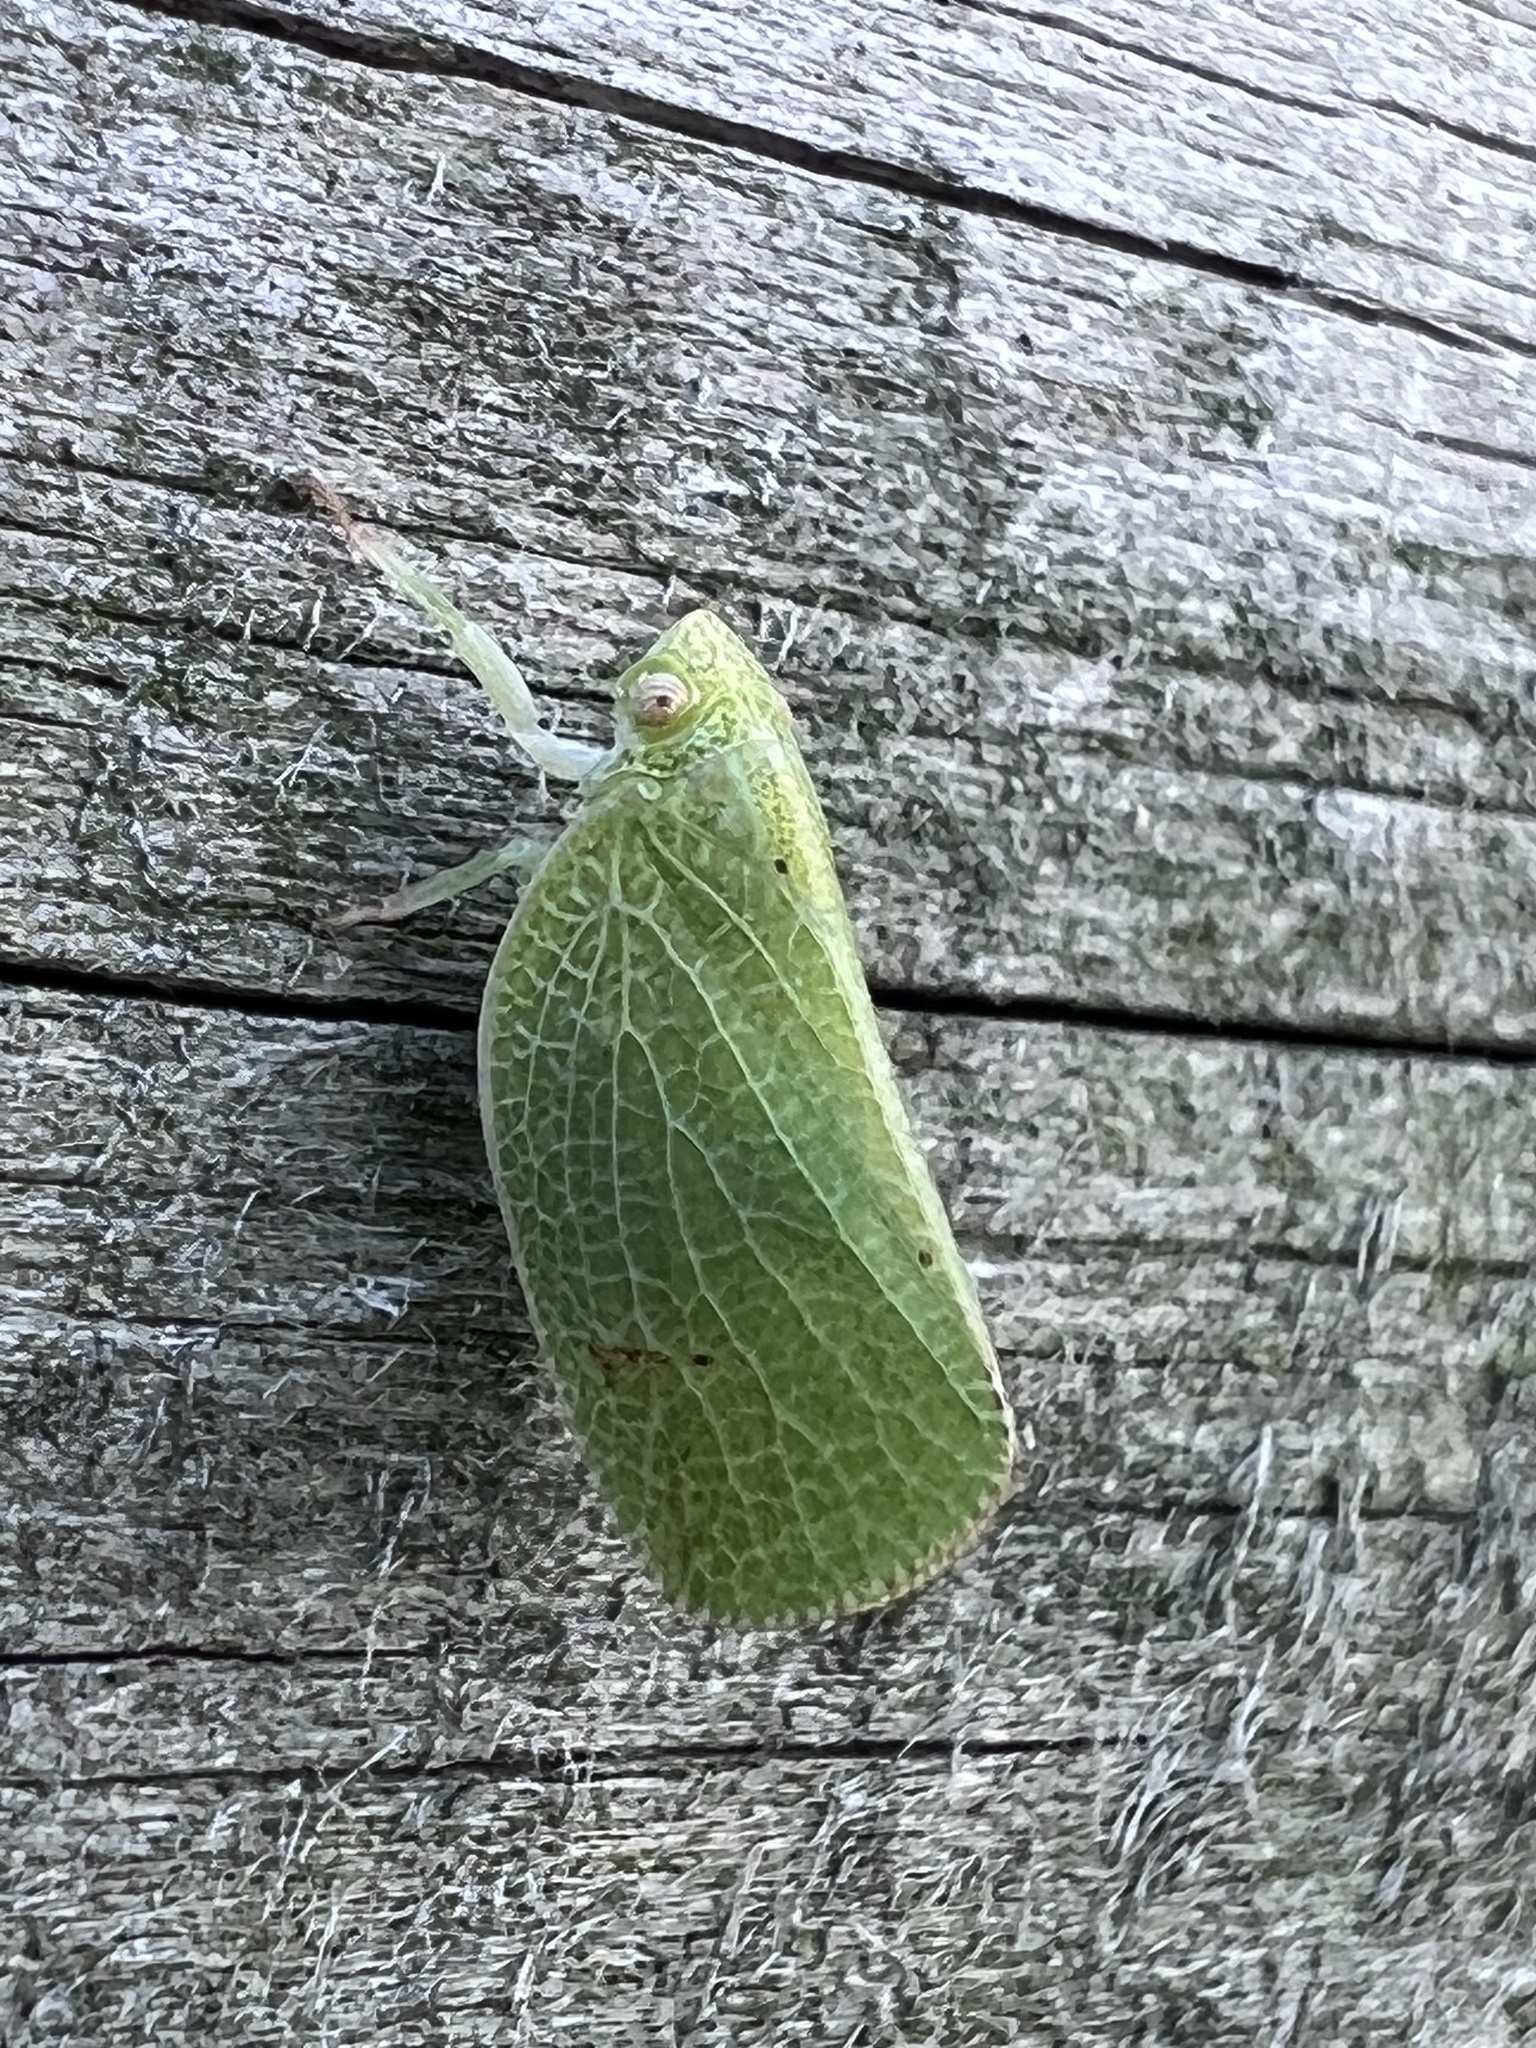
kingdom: Animalia
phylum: Arthropoda
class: Insecta
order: Hemiptera
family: Acanaloniidae
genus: Acanalonia
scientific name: Acanalonia conica
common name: Green cone-headed planthopper
